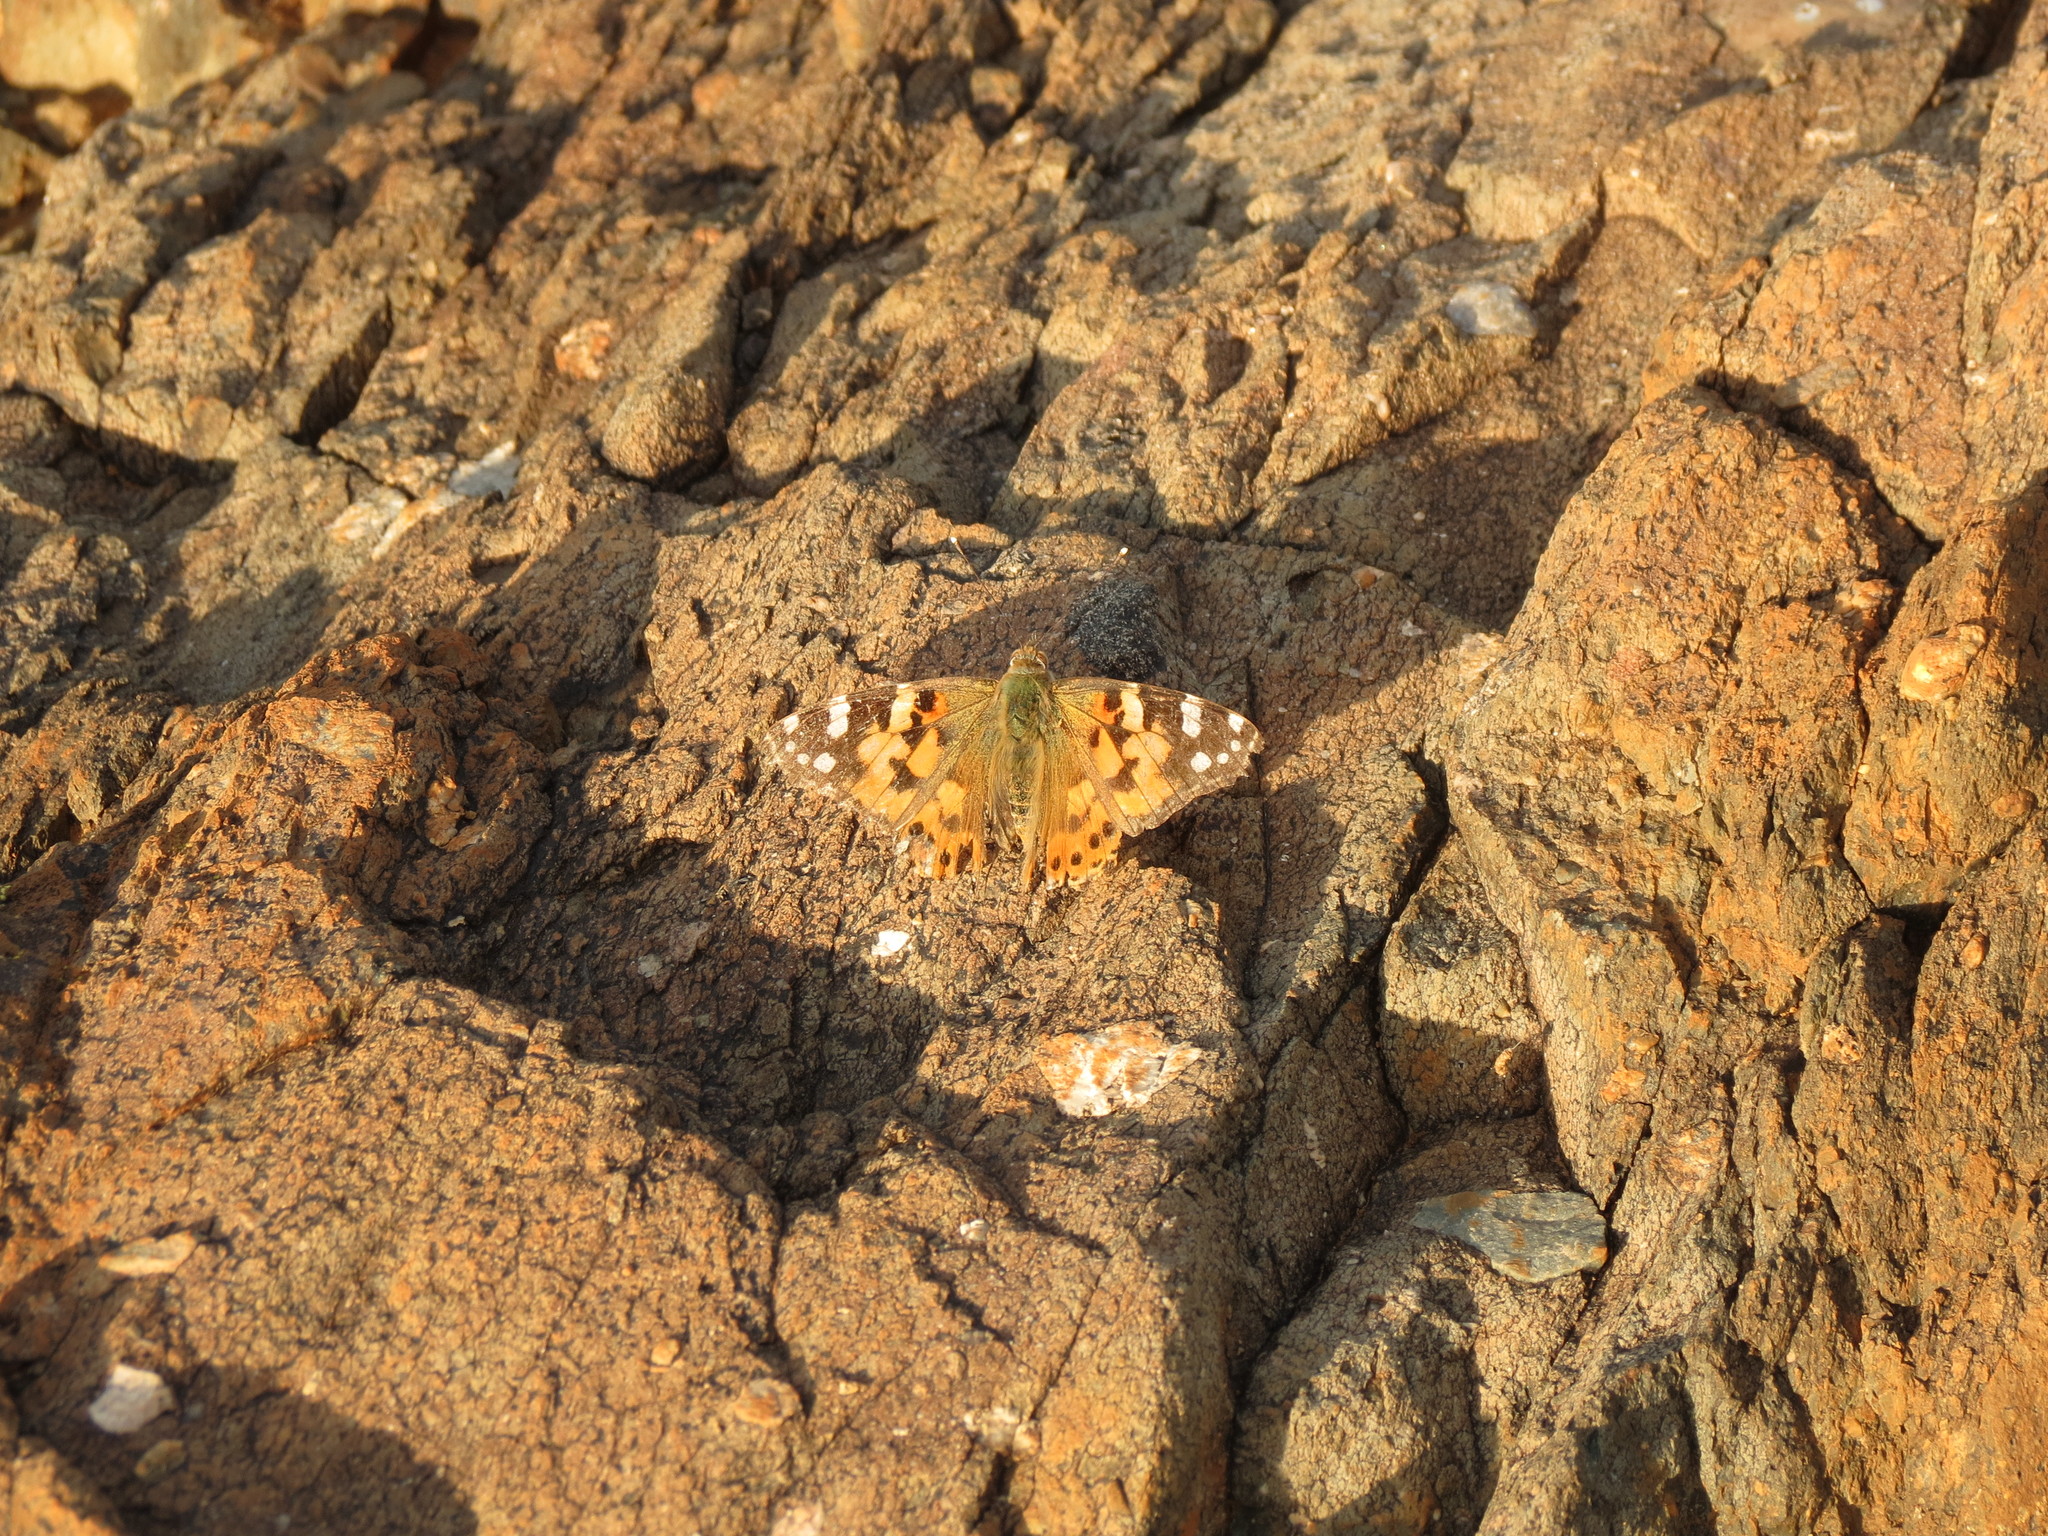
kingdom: Animalia
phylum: Arthropoda
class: Insecta
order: Lepidoptera
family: Nymphalidae
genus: Vanessa
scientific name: Vanessa cardui
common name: Painted lady
